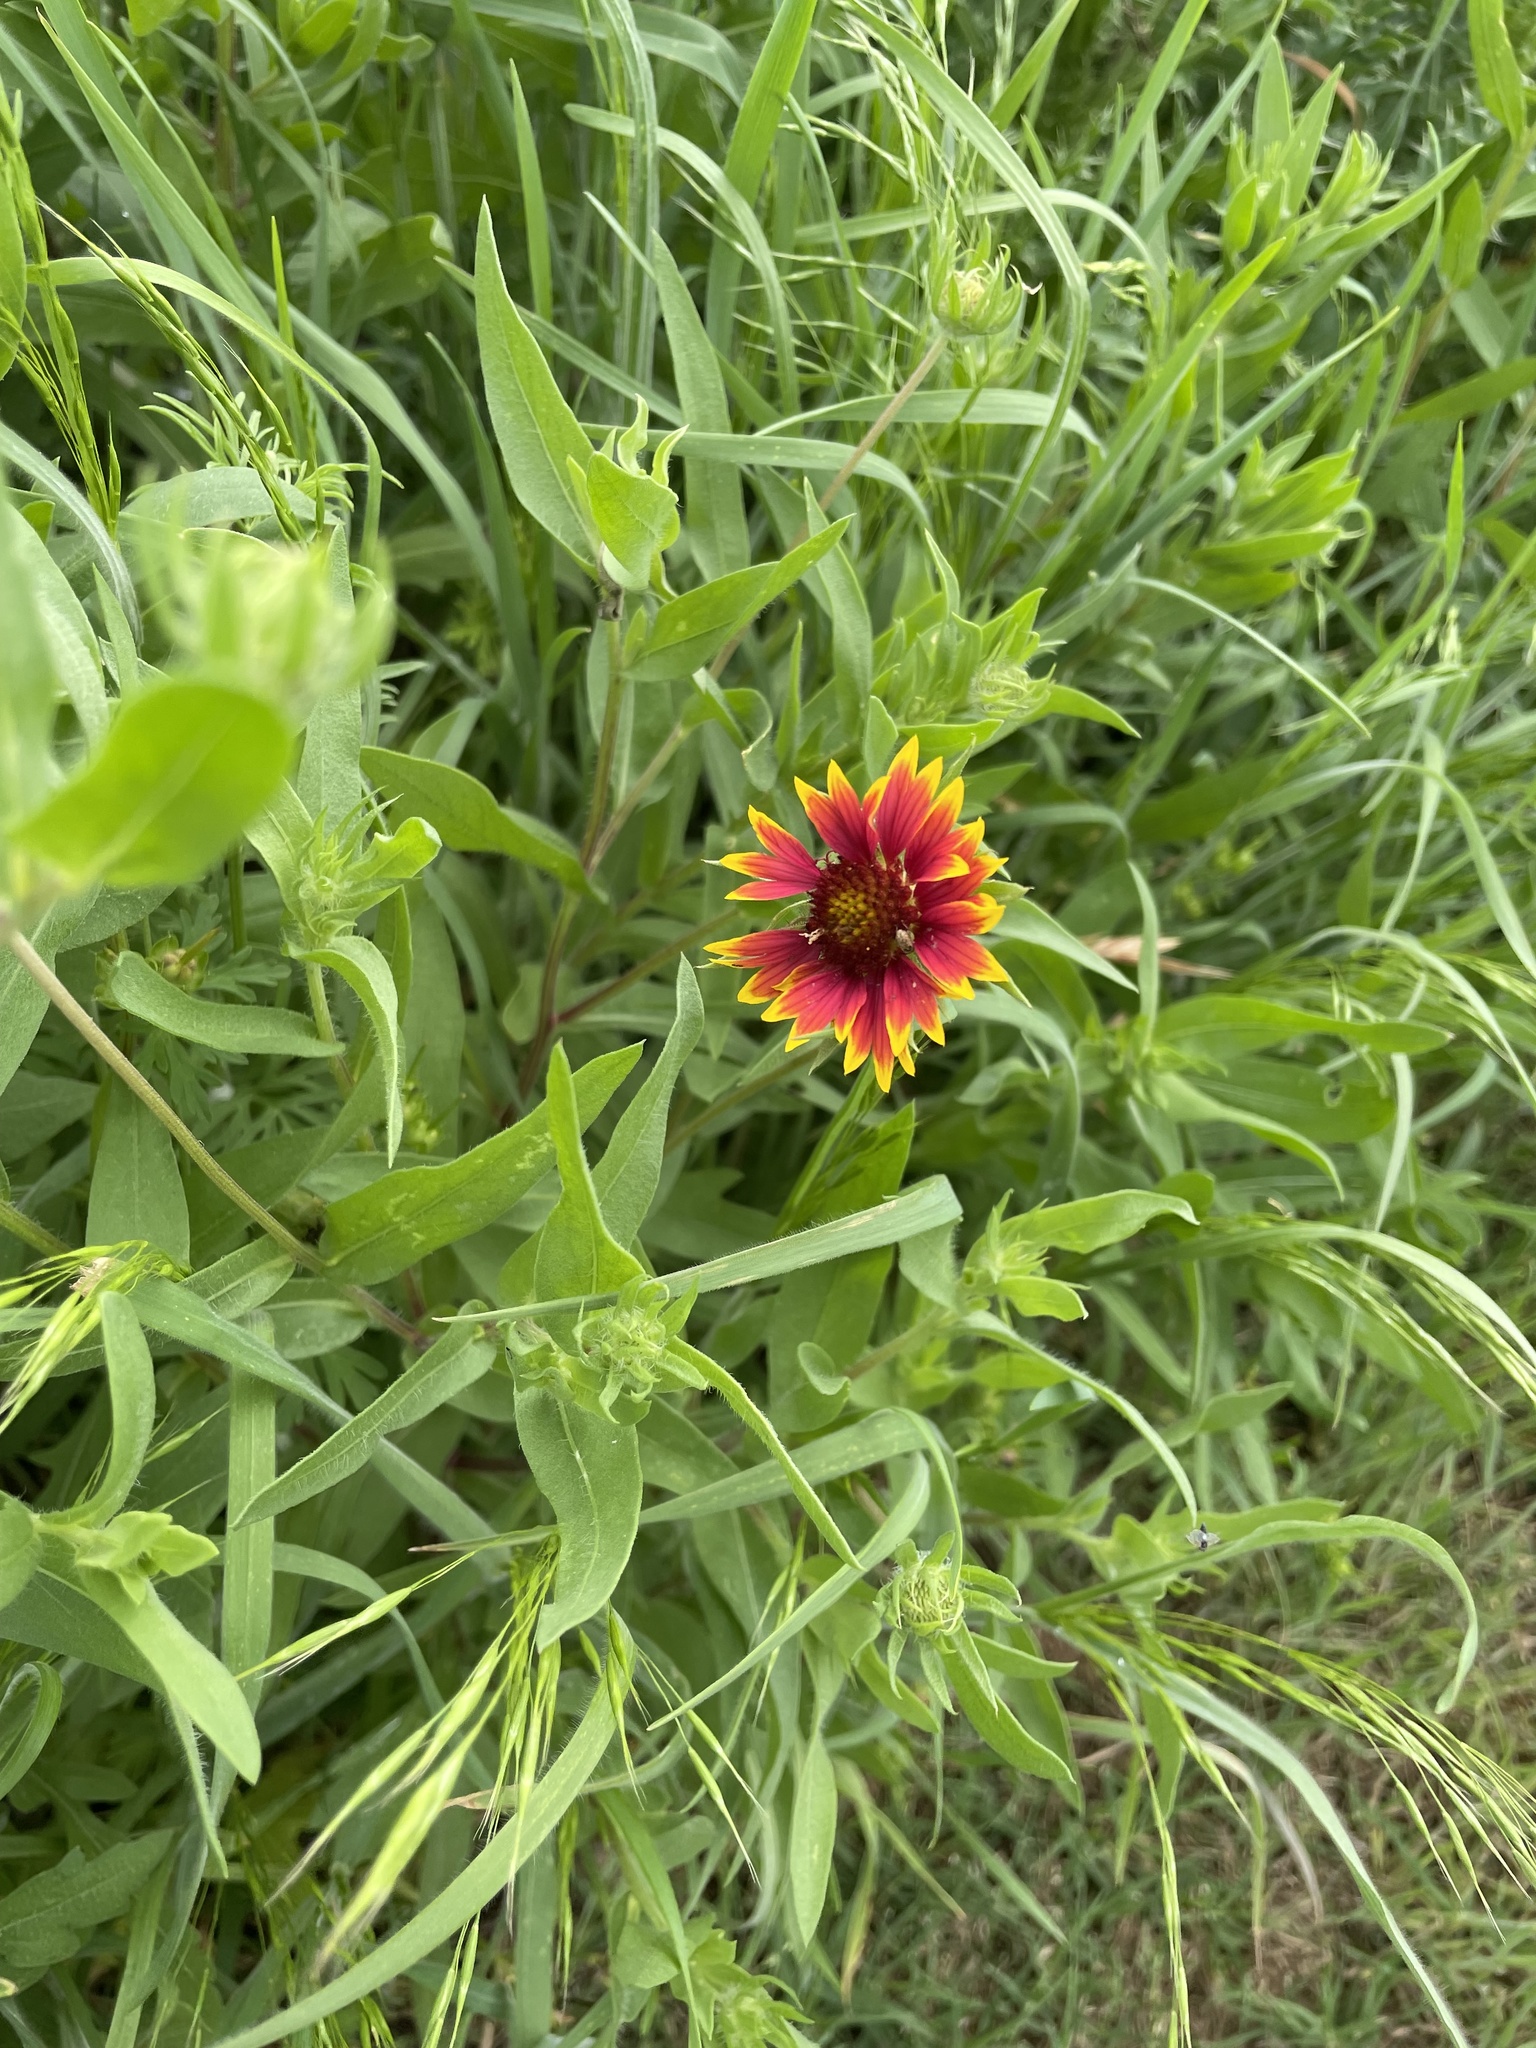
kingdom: Plantae
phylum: Tracheophyta
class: Magnoliopsida
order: Asterales
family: Asteraceae
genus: Gaillardia
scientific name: Gaillardia pulchella
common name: Firewheel
